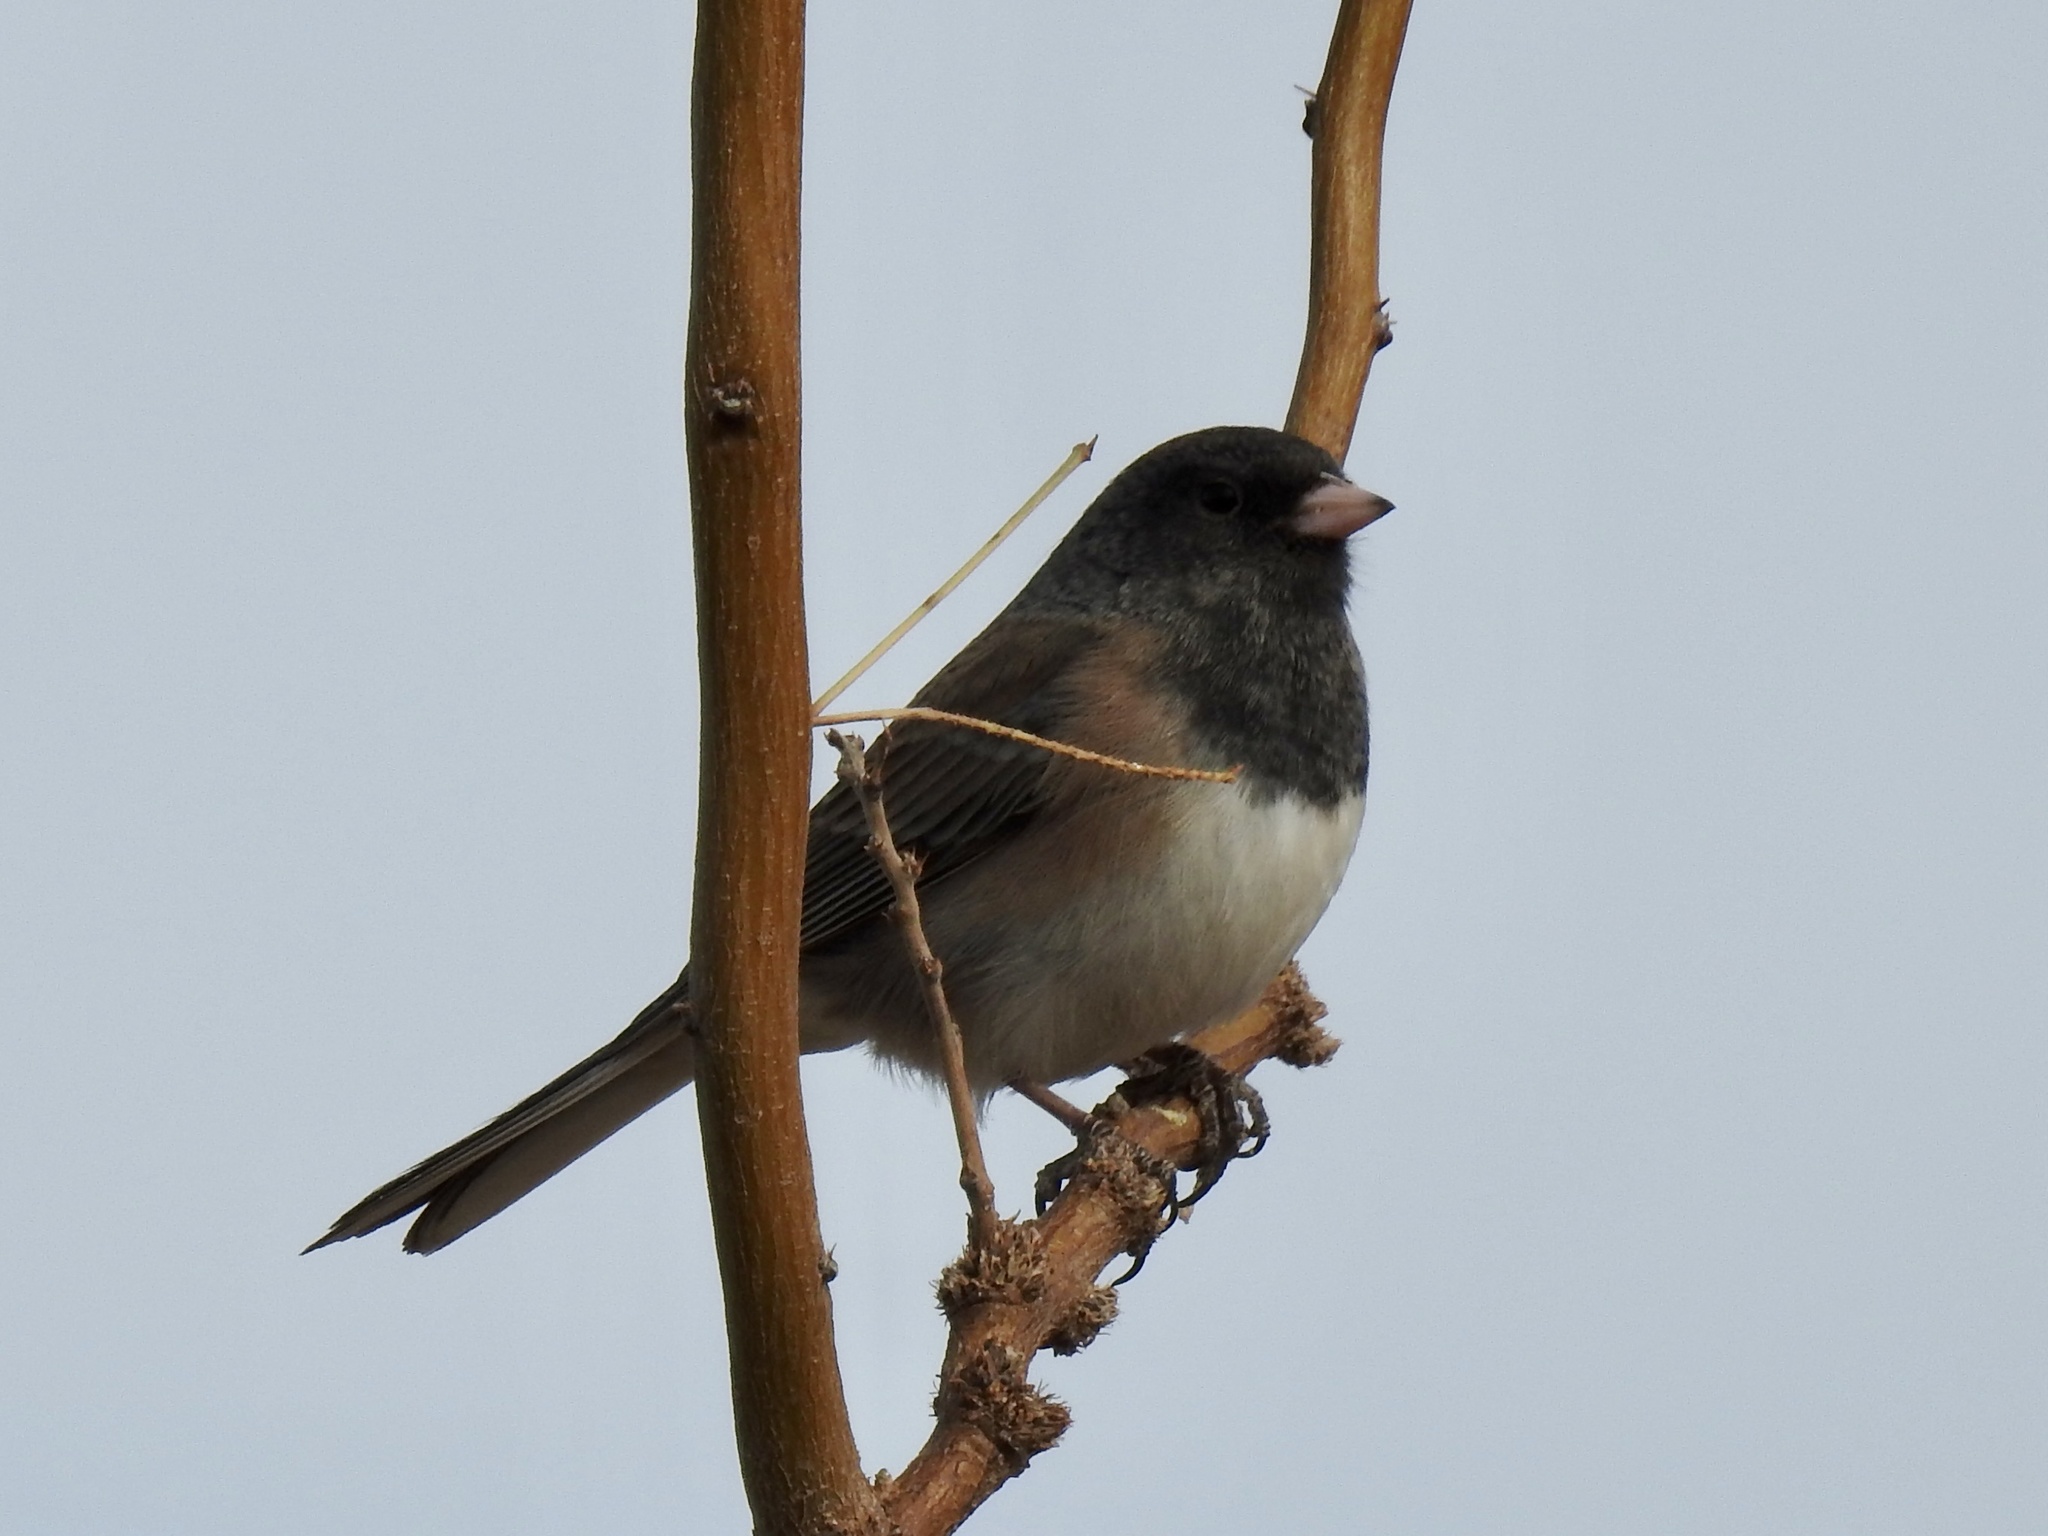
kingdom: Animalia
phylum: Chordata
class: Aves
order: Passeriformes
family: Passerellidae
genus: Junco
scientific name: Junco hyemalis
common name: Dark-eyed junco
